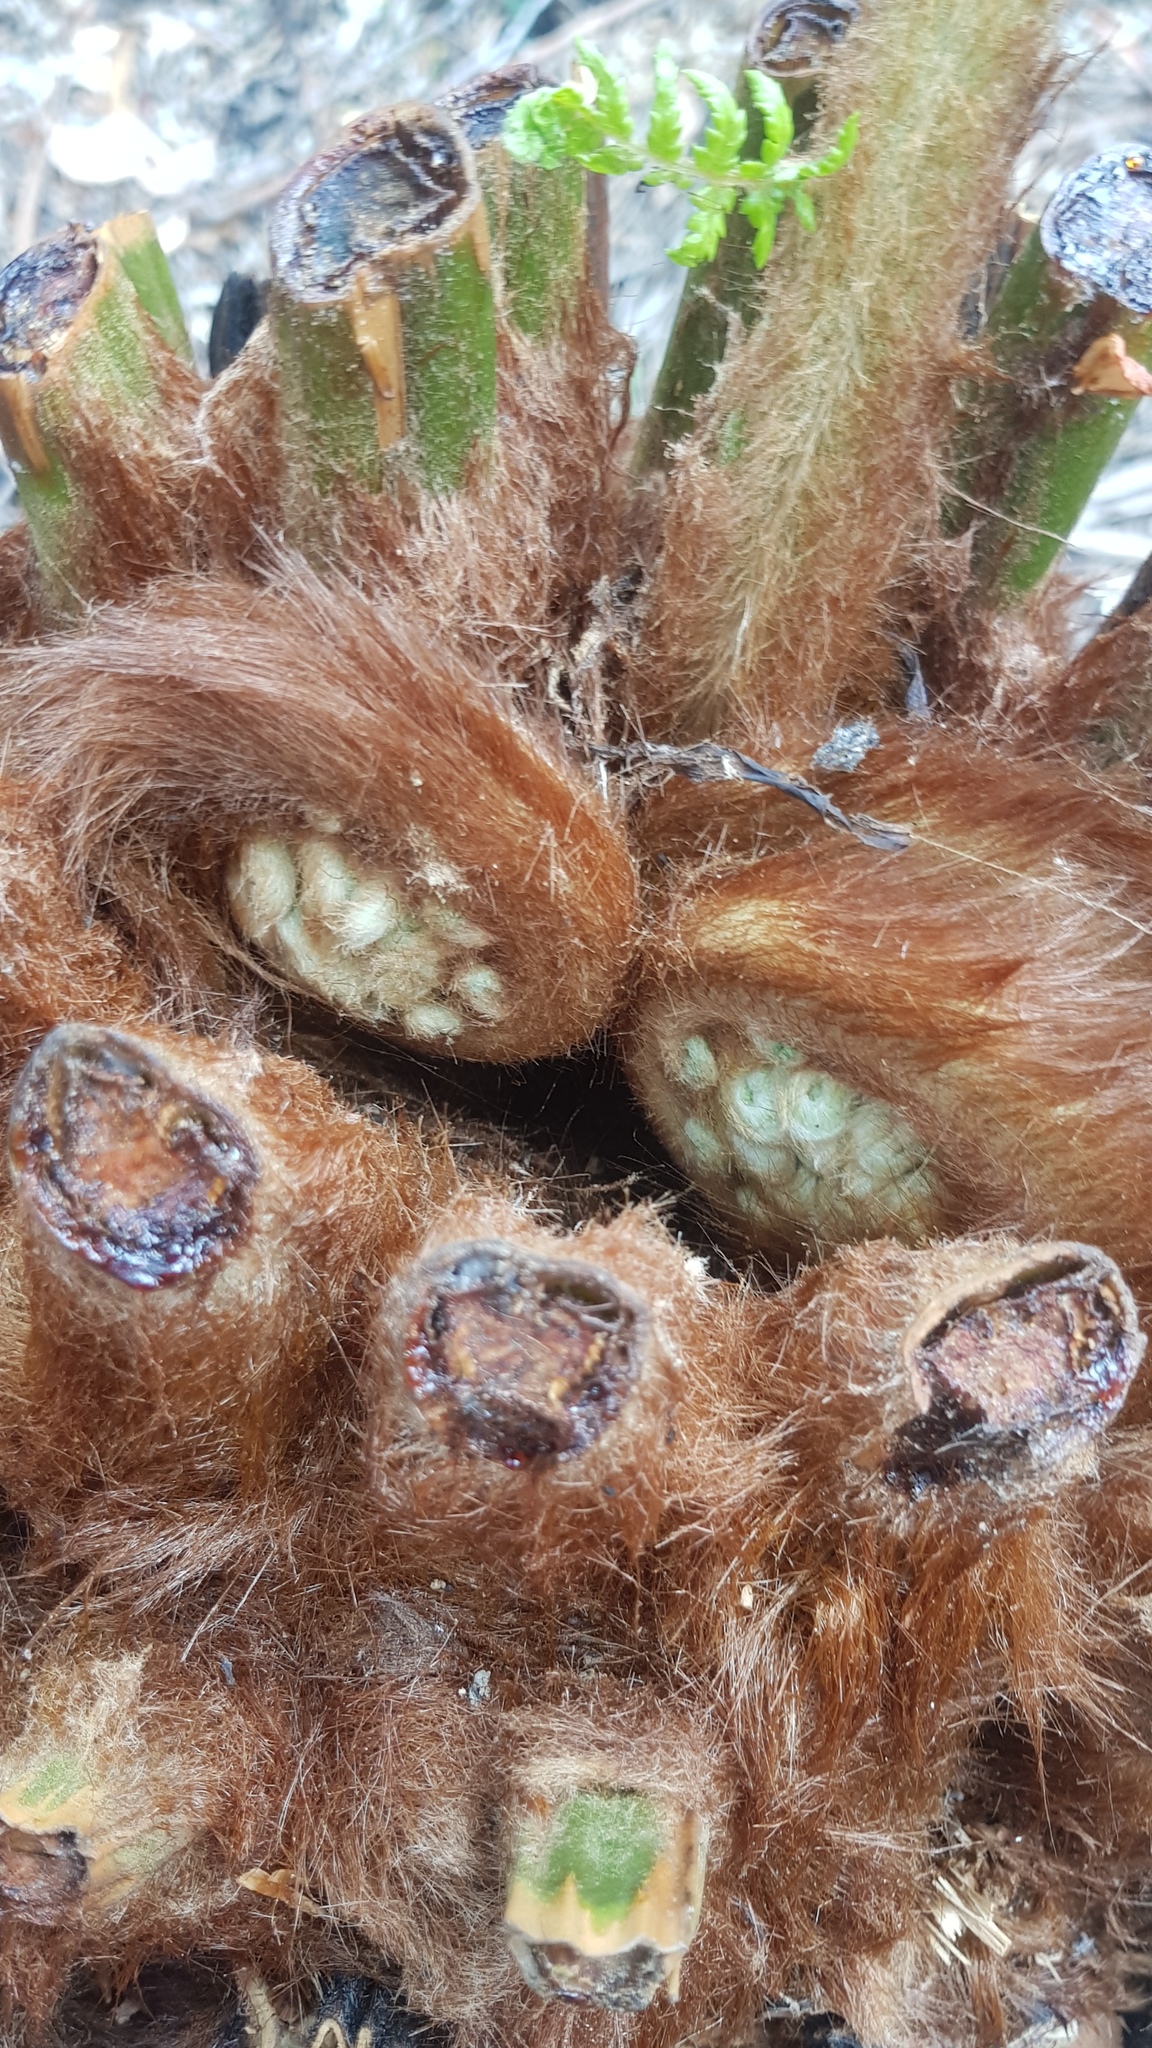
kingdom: Plantae
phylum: Tracheophyta
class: Polypodiopsida
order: Cyatheales
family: Dicksoniaceae
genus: Dicksonia
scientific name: Dicksonia antarctica
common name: Australian treefern
